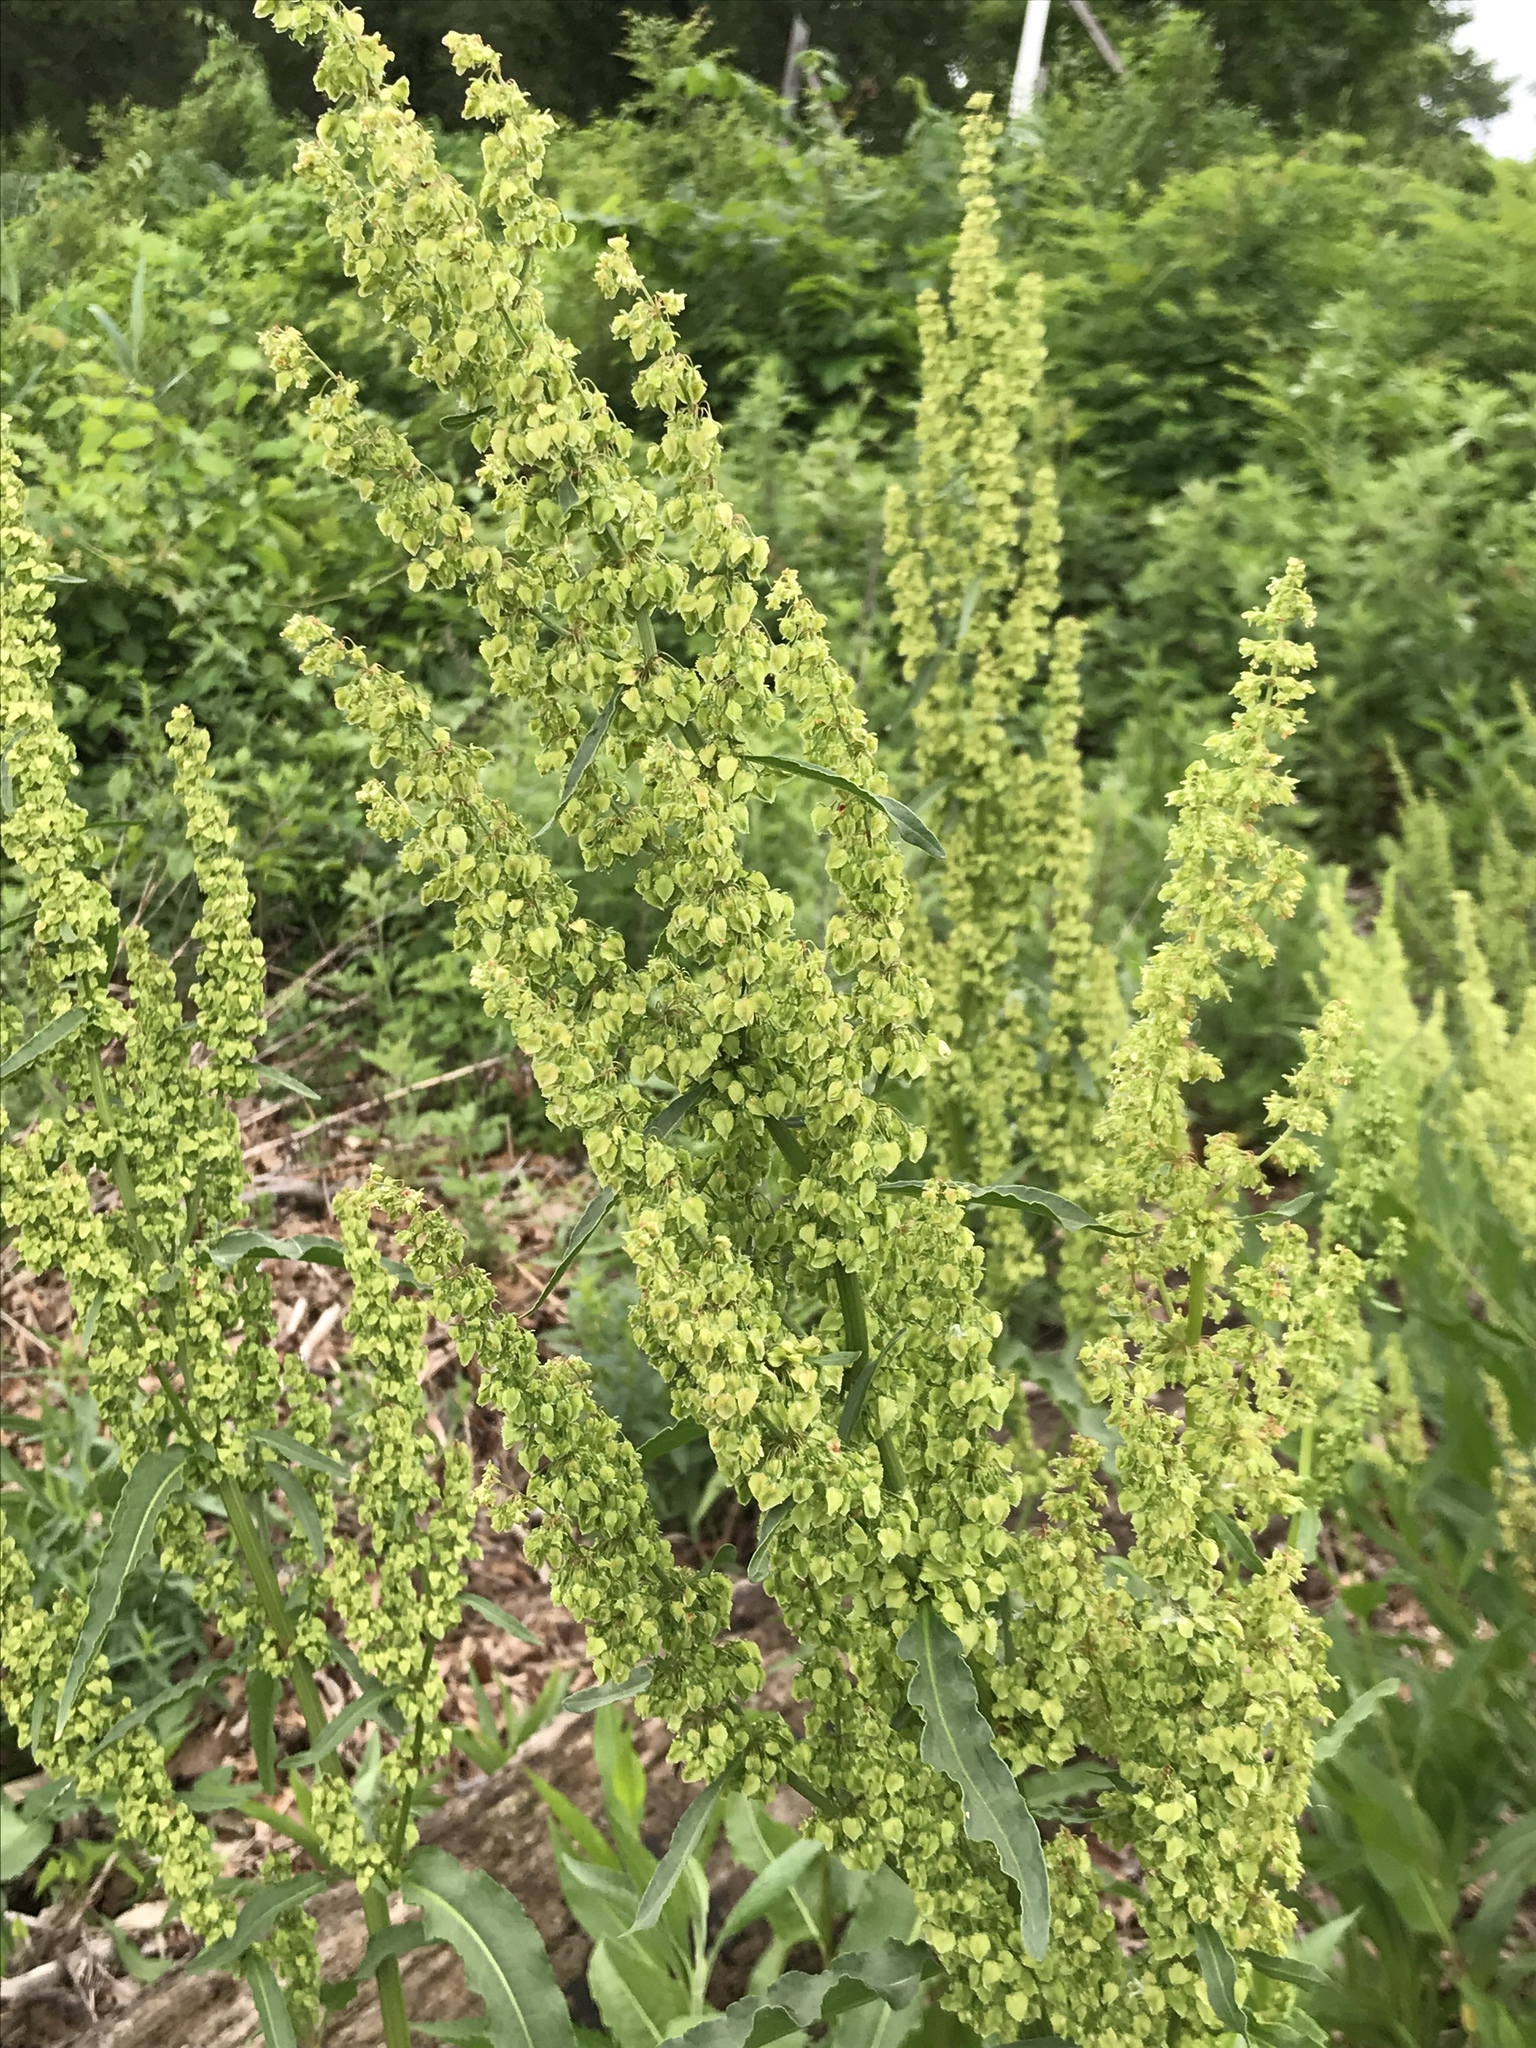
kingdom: Plantae
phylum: Tracheophyta
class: Magnoliopsida
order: Caryophyllales
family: Polygonaceae
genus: Rumex
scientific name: Rumex obtusifolius
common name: Bitter dock
